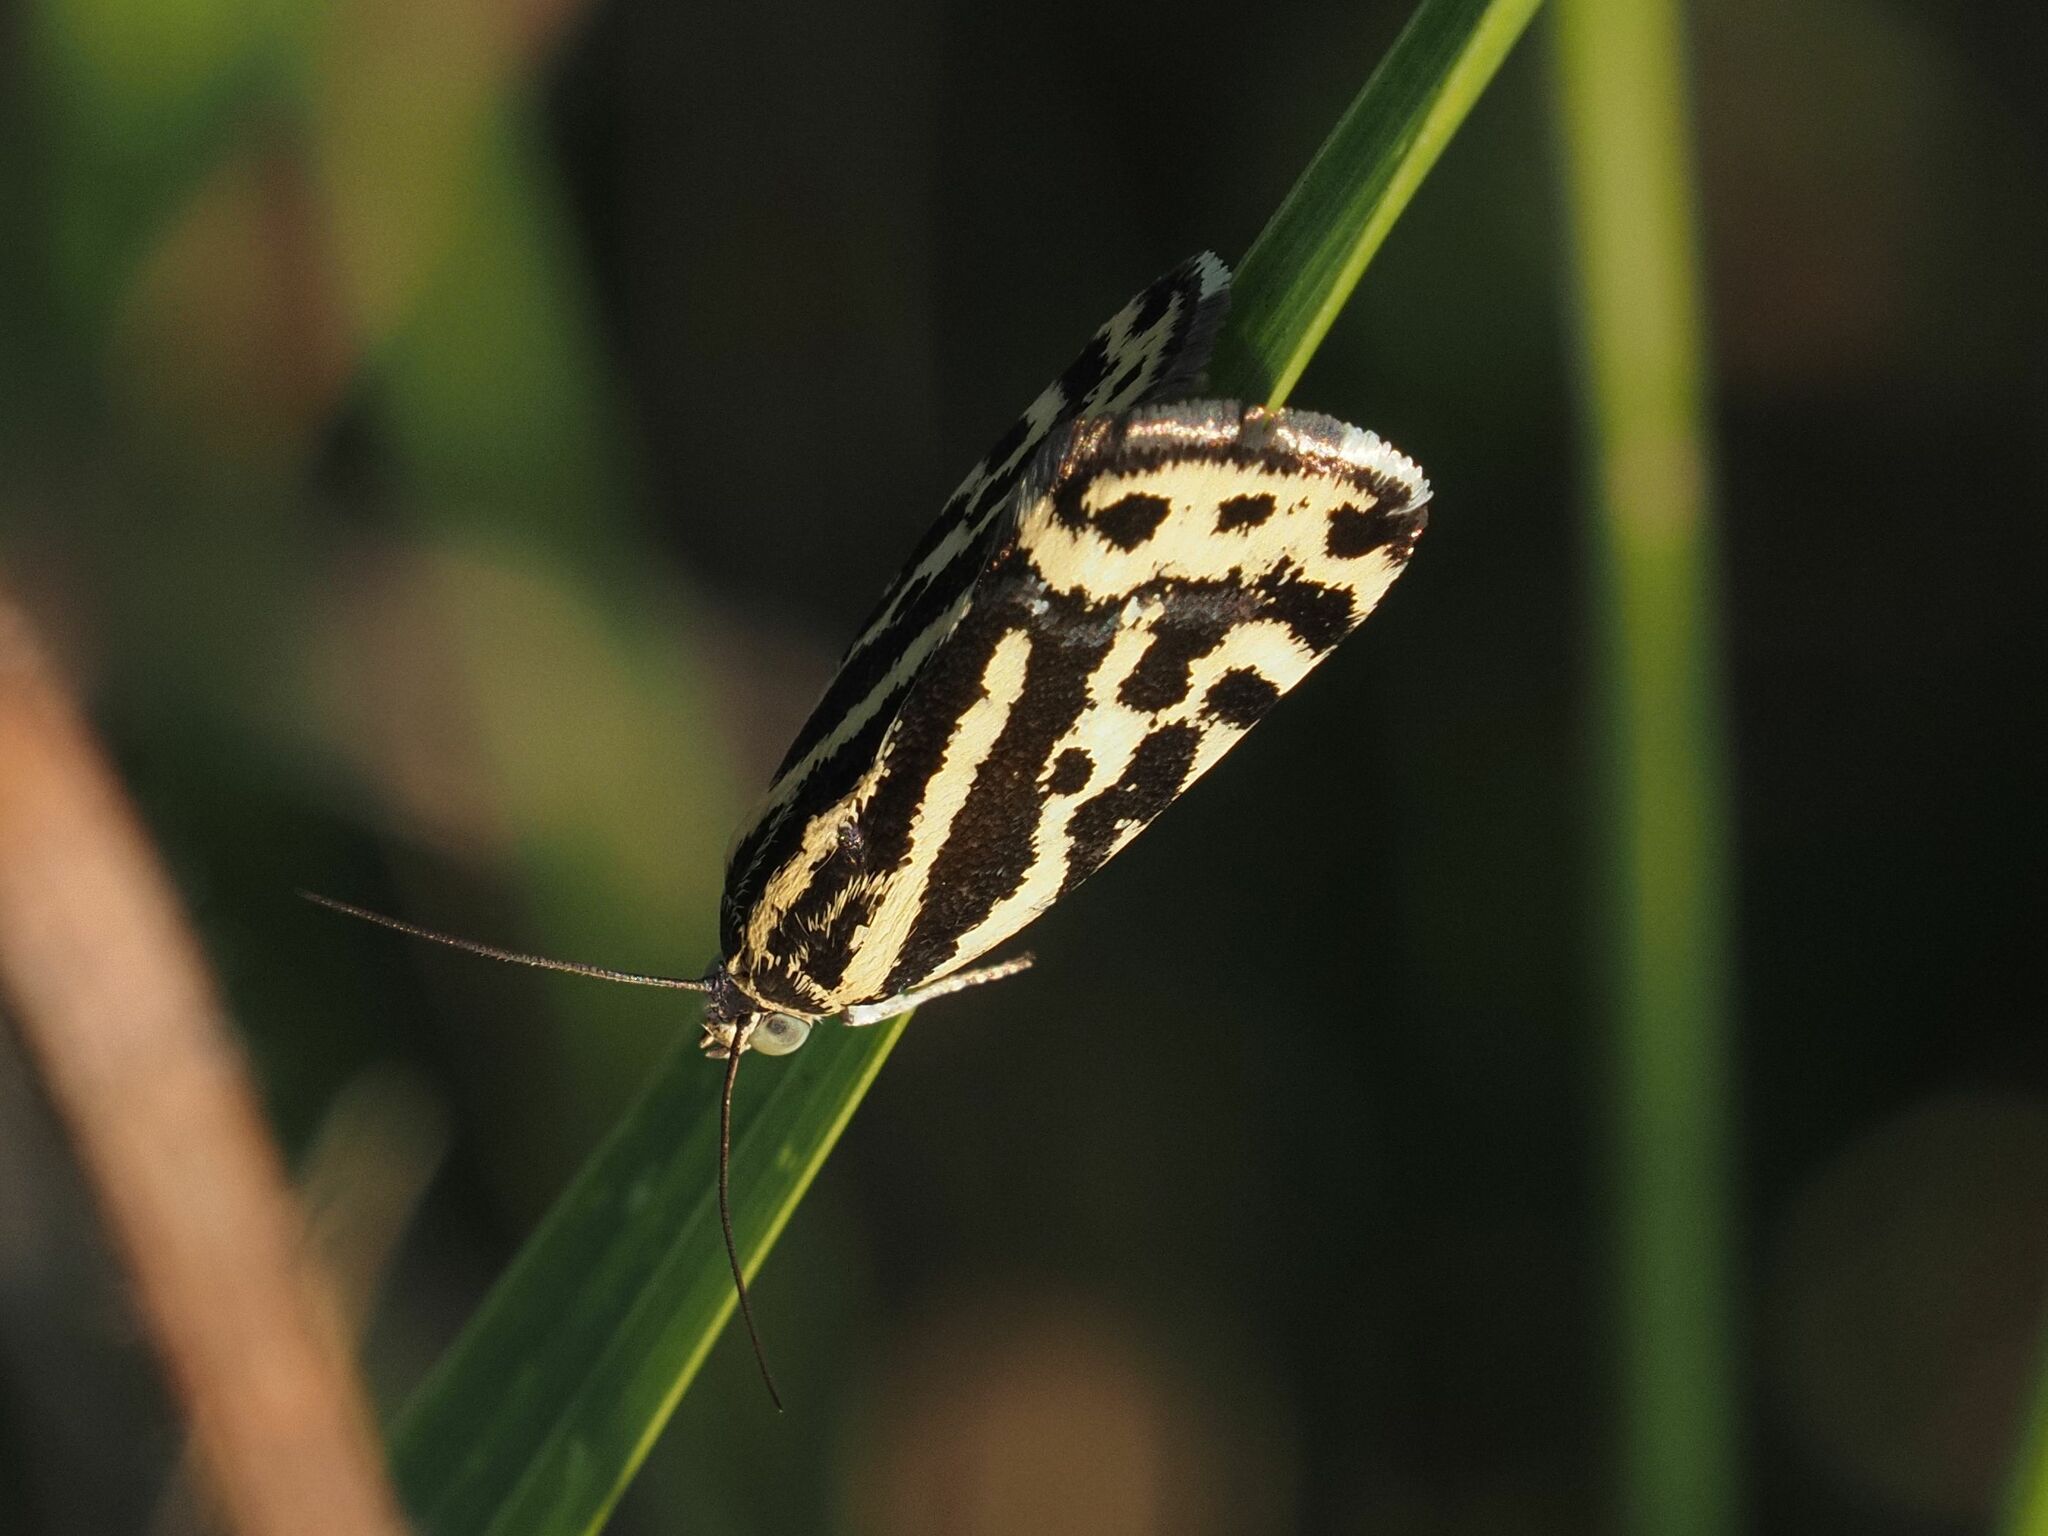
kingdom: Animalia
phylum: Arthropoda
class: Insecta
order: Lepidoptera
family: Noctuidae
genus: Acontia
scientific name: Acontia trabealis
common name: Spotted sulphur
